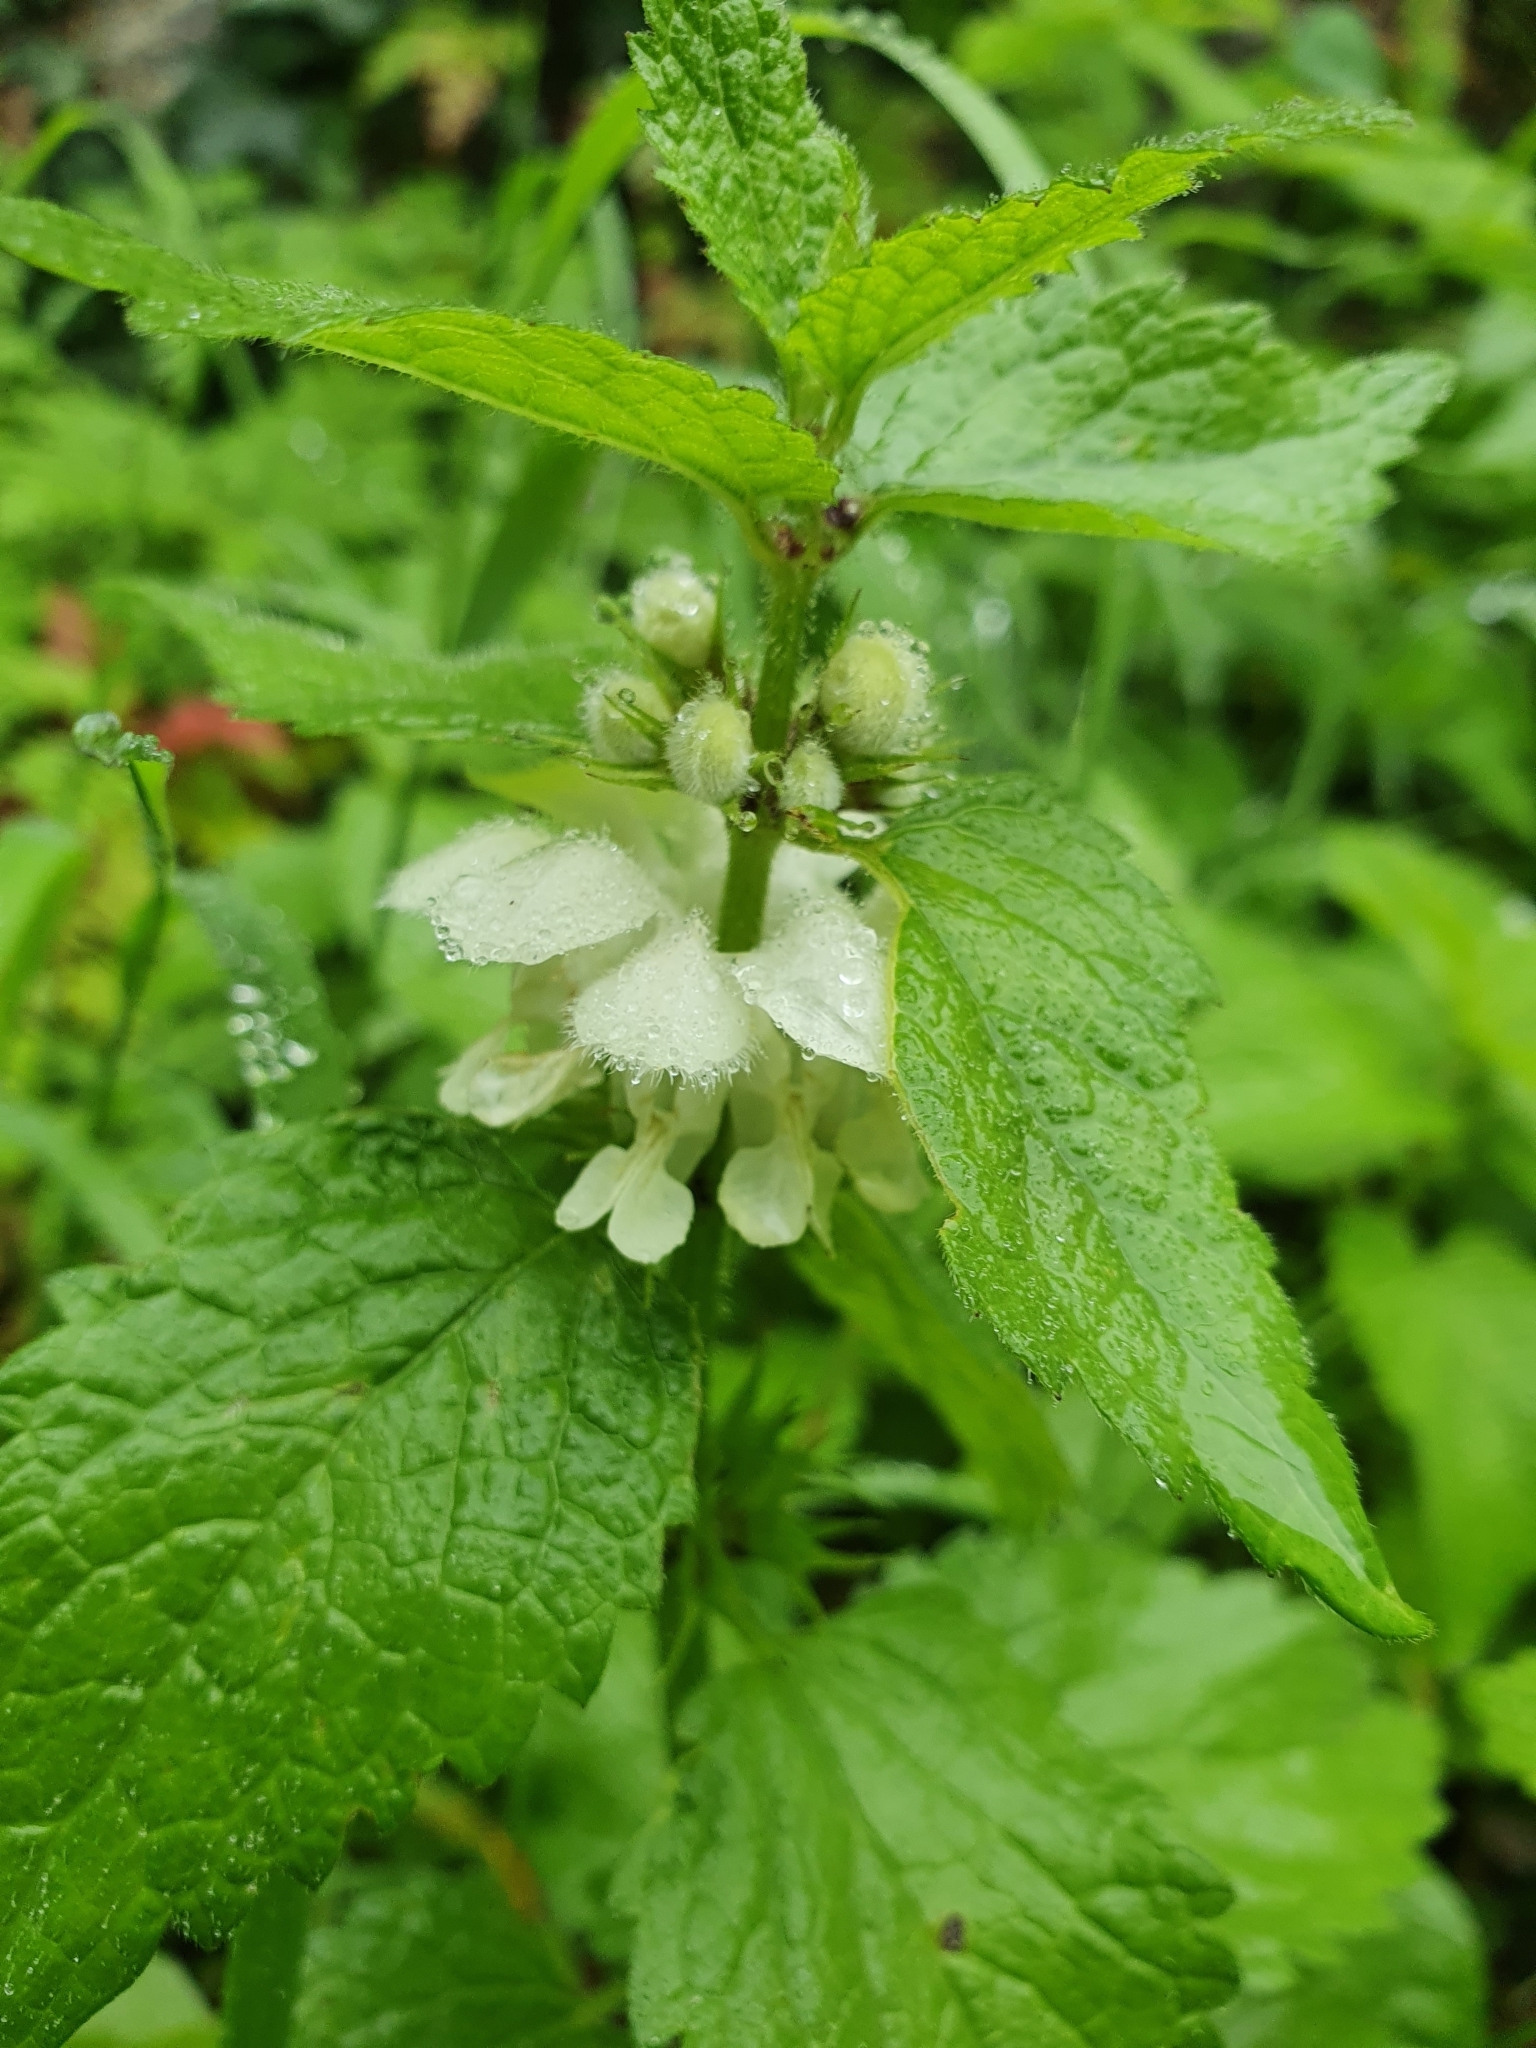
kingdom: Plantae
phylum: Tracheophyta
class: Magnoliopsida
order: Lamiales
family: Lamiaceae
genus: Lamium
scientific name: Lamium album
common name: White dead-nettle
